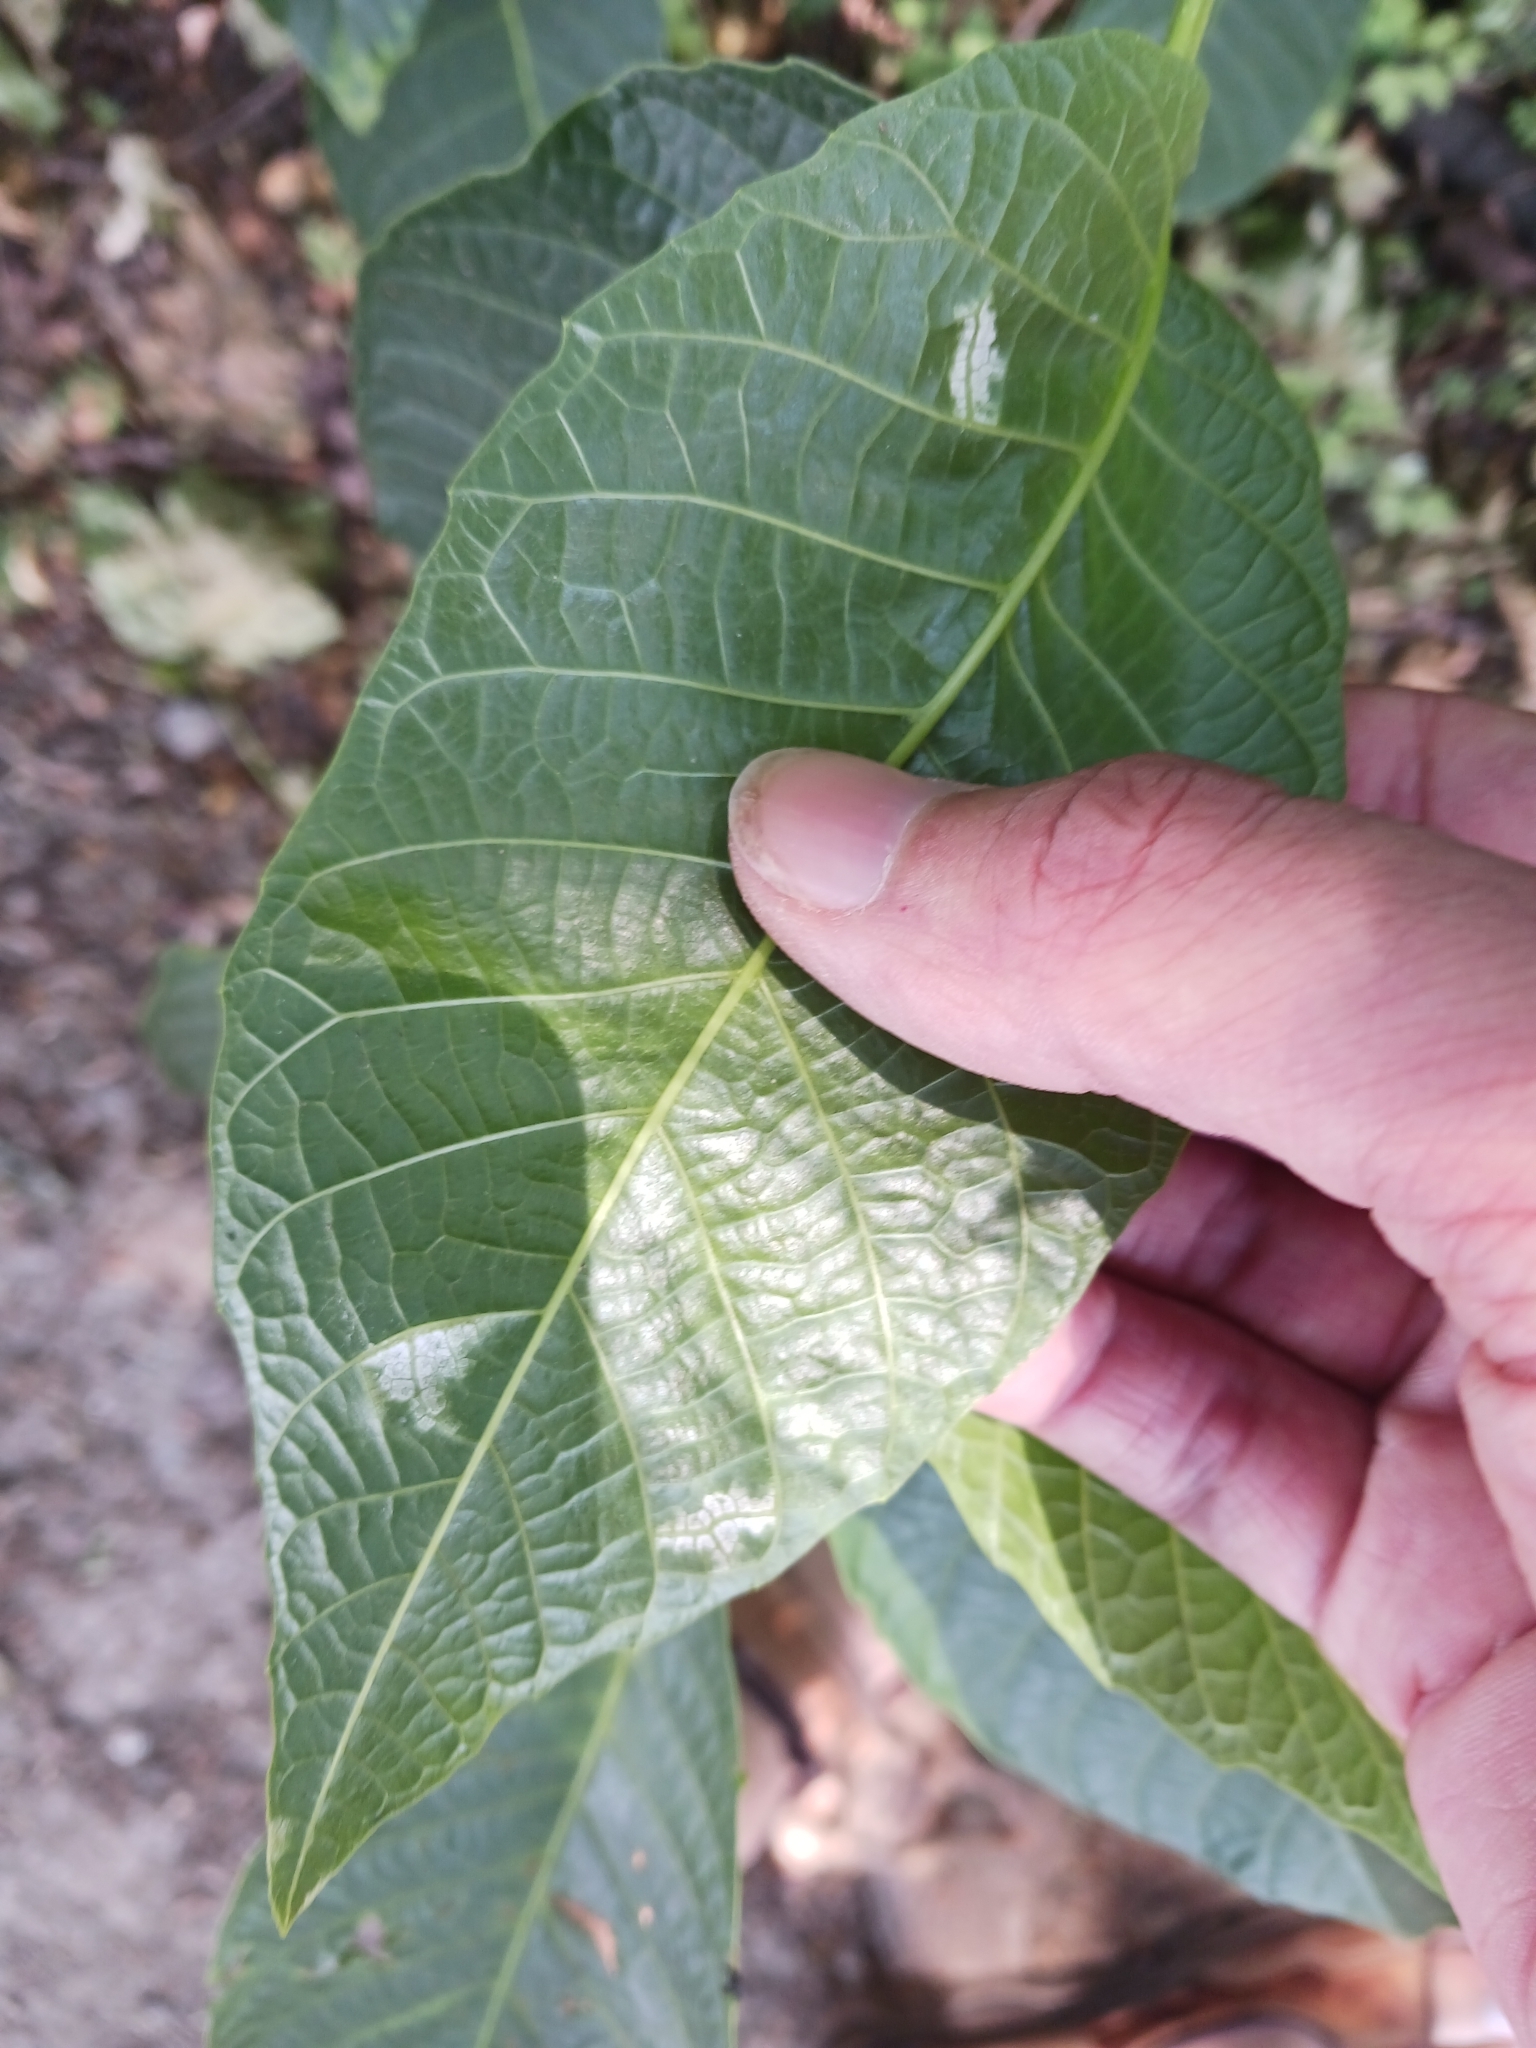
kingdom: Fungi
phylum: Basidiomycota
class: Exobasidiomycetes
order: Microstromatales
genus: Pseudomicrostroma
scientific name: Pseudomicrostroma juglandis
